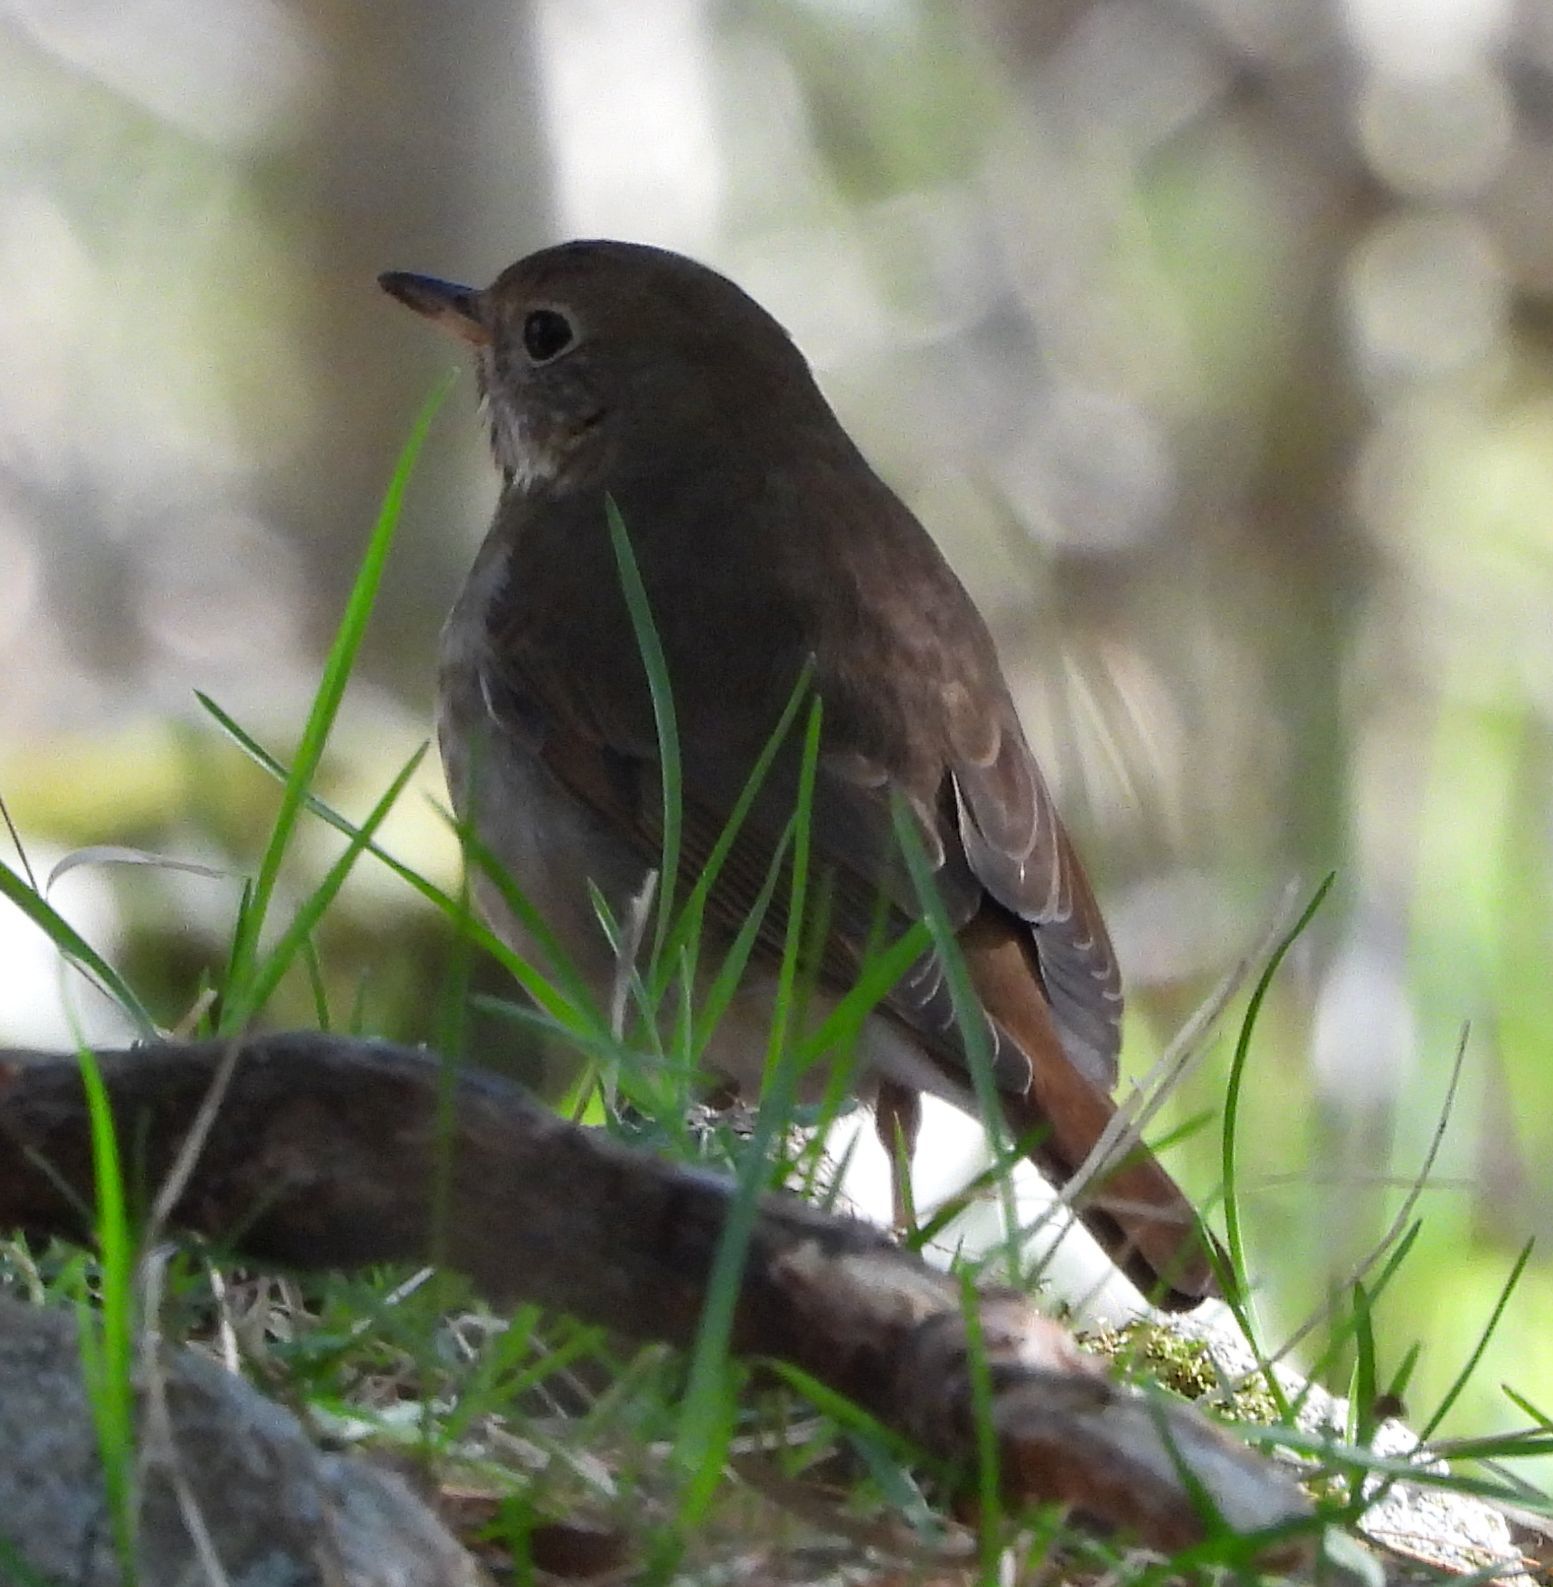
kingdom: Animalia
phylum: Chordata
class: Aves
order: Passeriformes
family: Turdidae
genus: Catharus
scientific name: Catharus guttatus
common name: Hermit thrush
